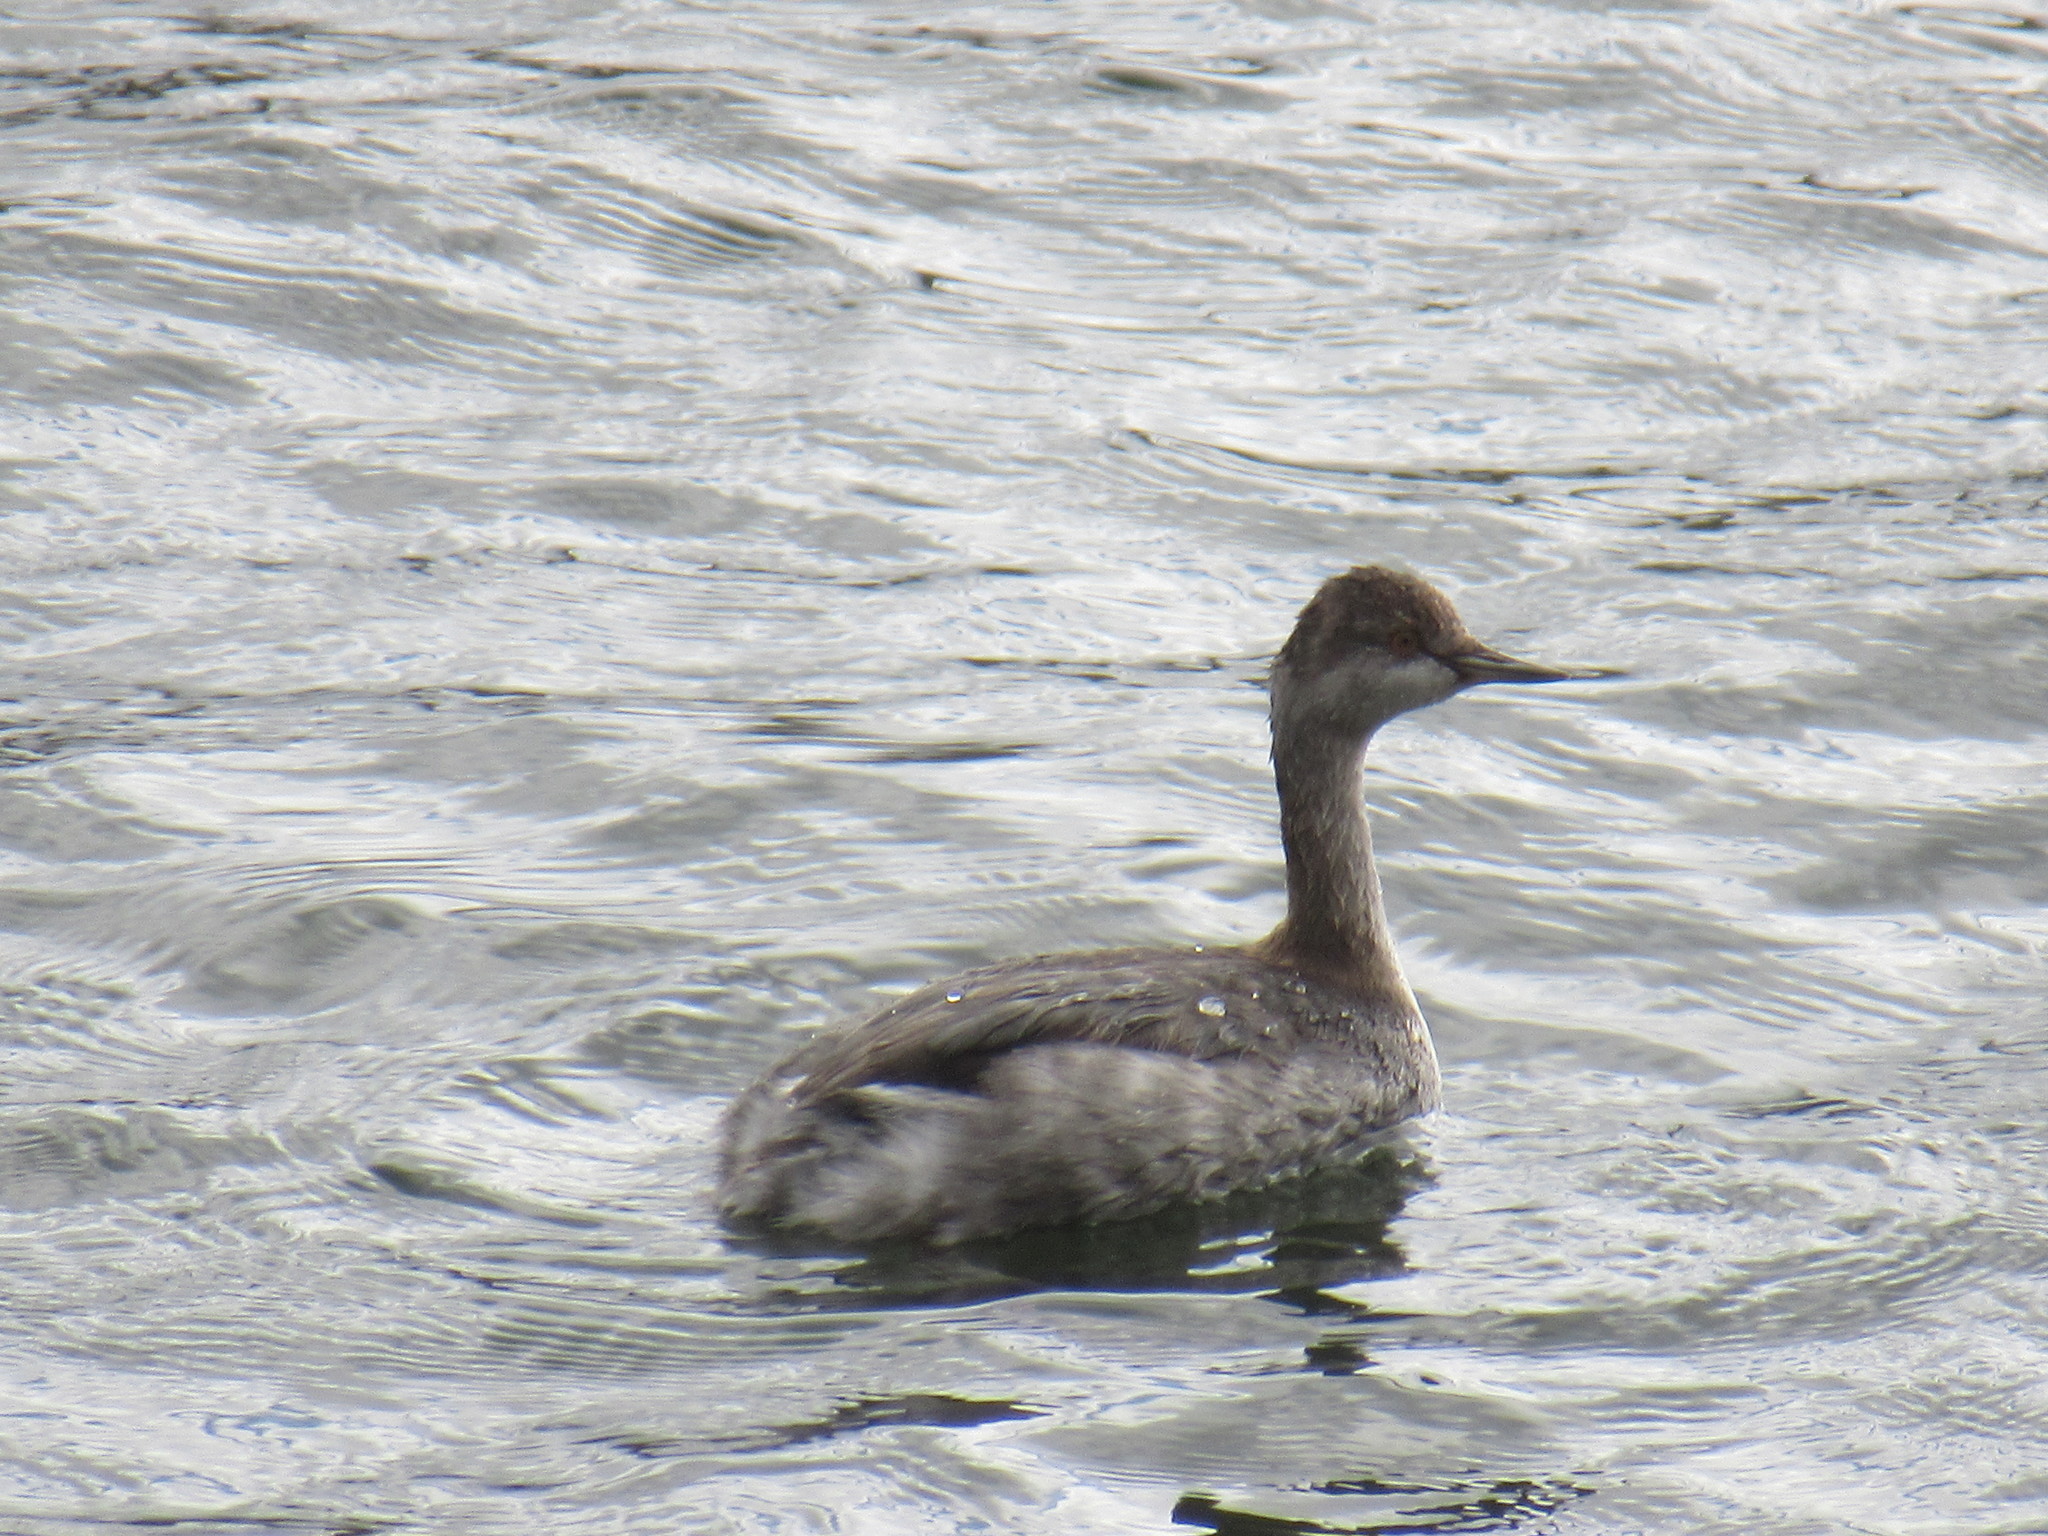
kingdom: Animalia
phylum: Chordata
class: Aves
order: Podicipediformes
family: Podicipedidae
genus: Podiceps
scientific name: Podiceps nigricollis
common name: Black-necked grebe
